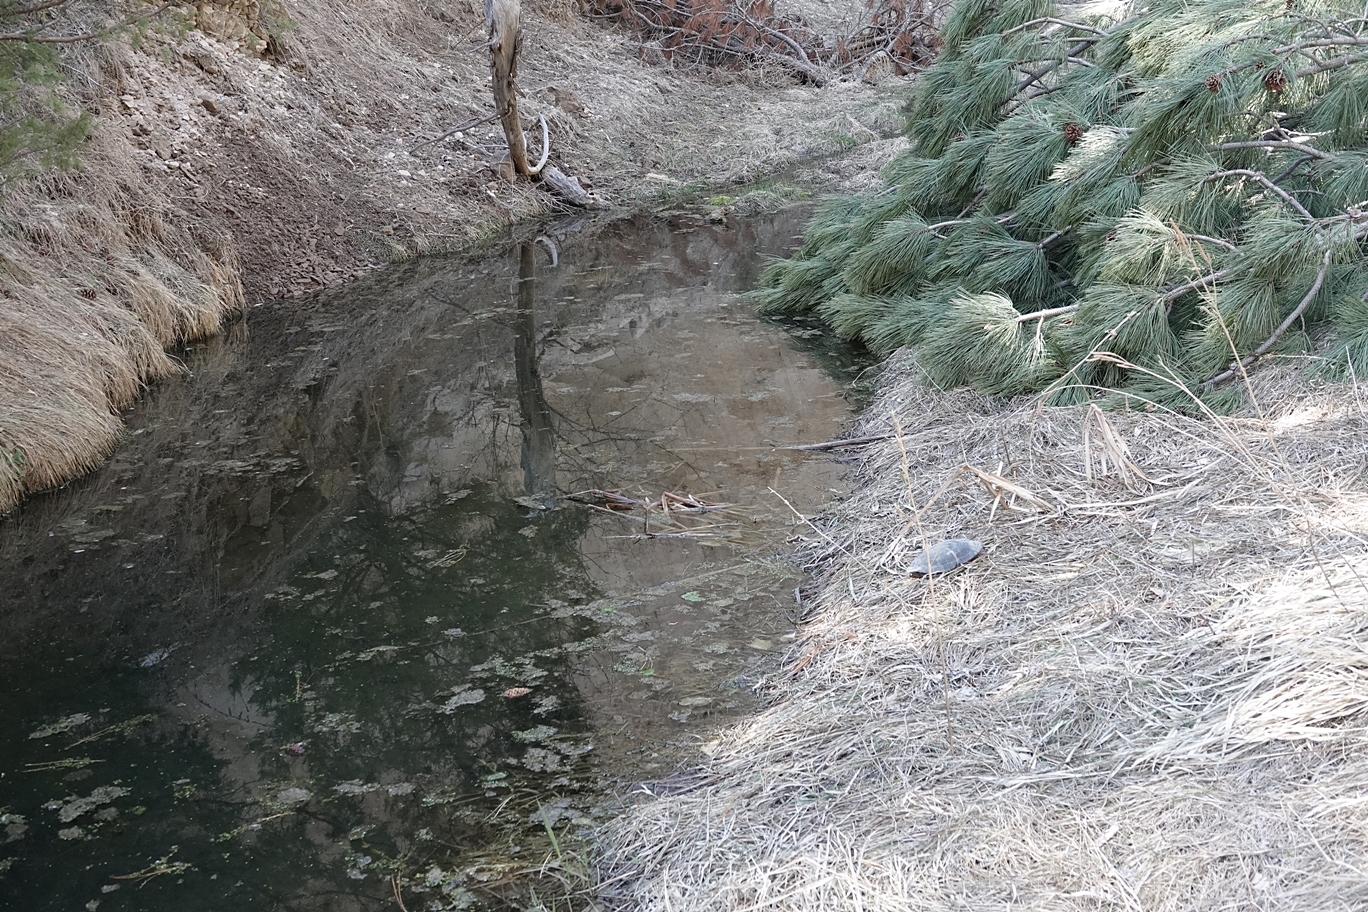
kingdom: Animalia
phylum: Chordata
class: Testudines
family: Emydidae
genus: Chrysemys
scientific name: Chrysemys picta
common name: Painted turtle
